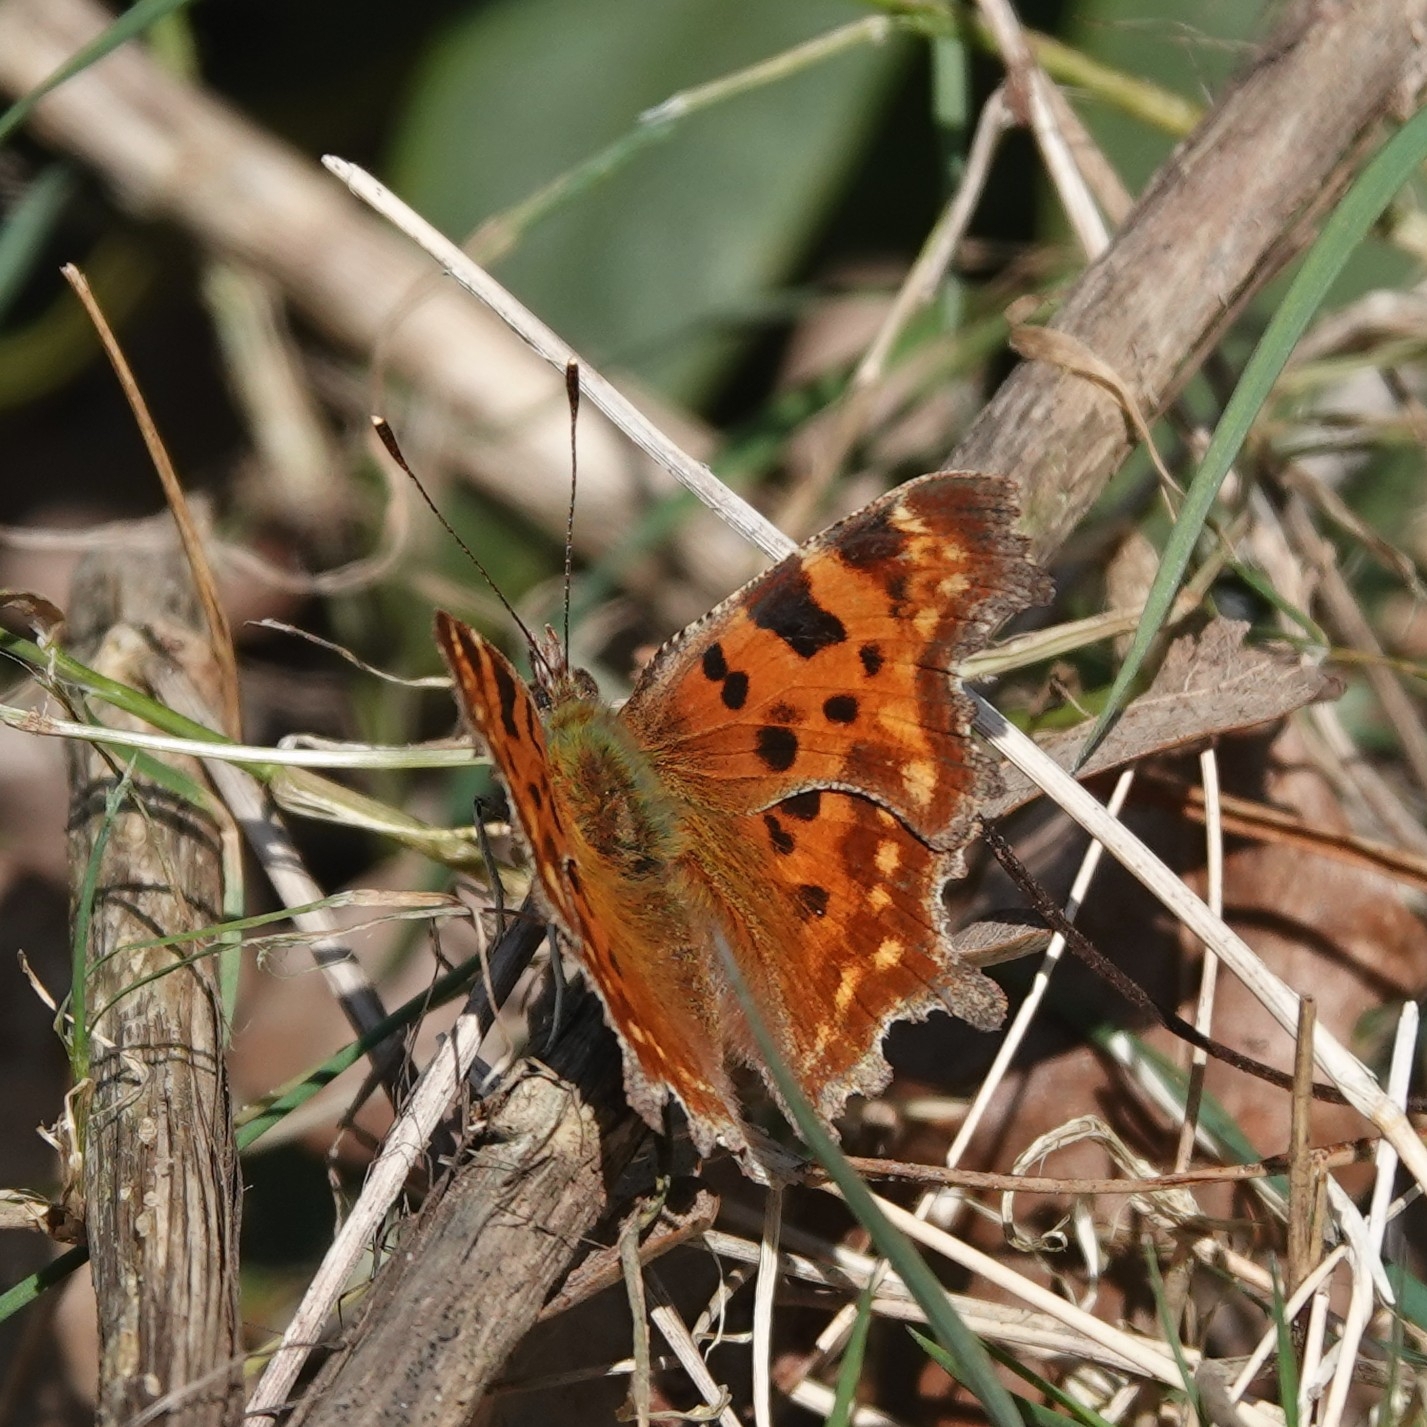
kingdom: Animalia
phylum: Arthropoda
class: Insecta
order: Lepidoptera
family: Nymphalidae
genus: Polygonia
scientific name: Polygonia c-album
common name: Comma
